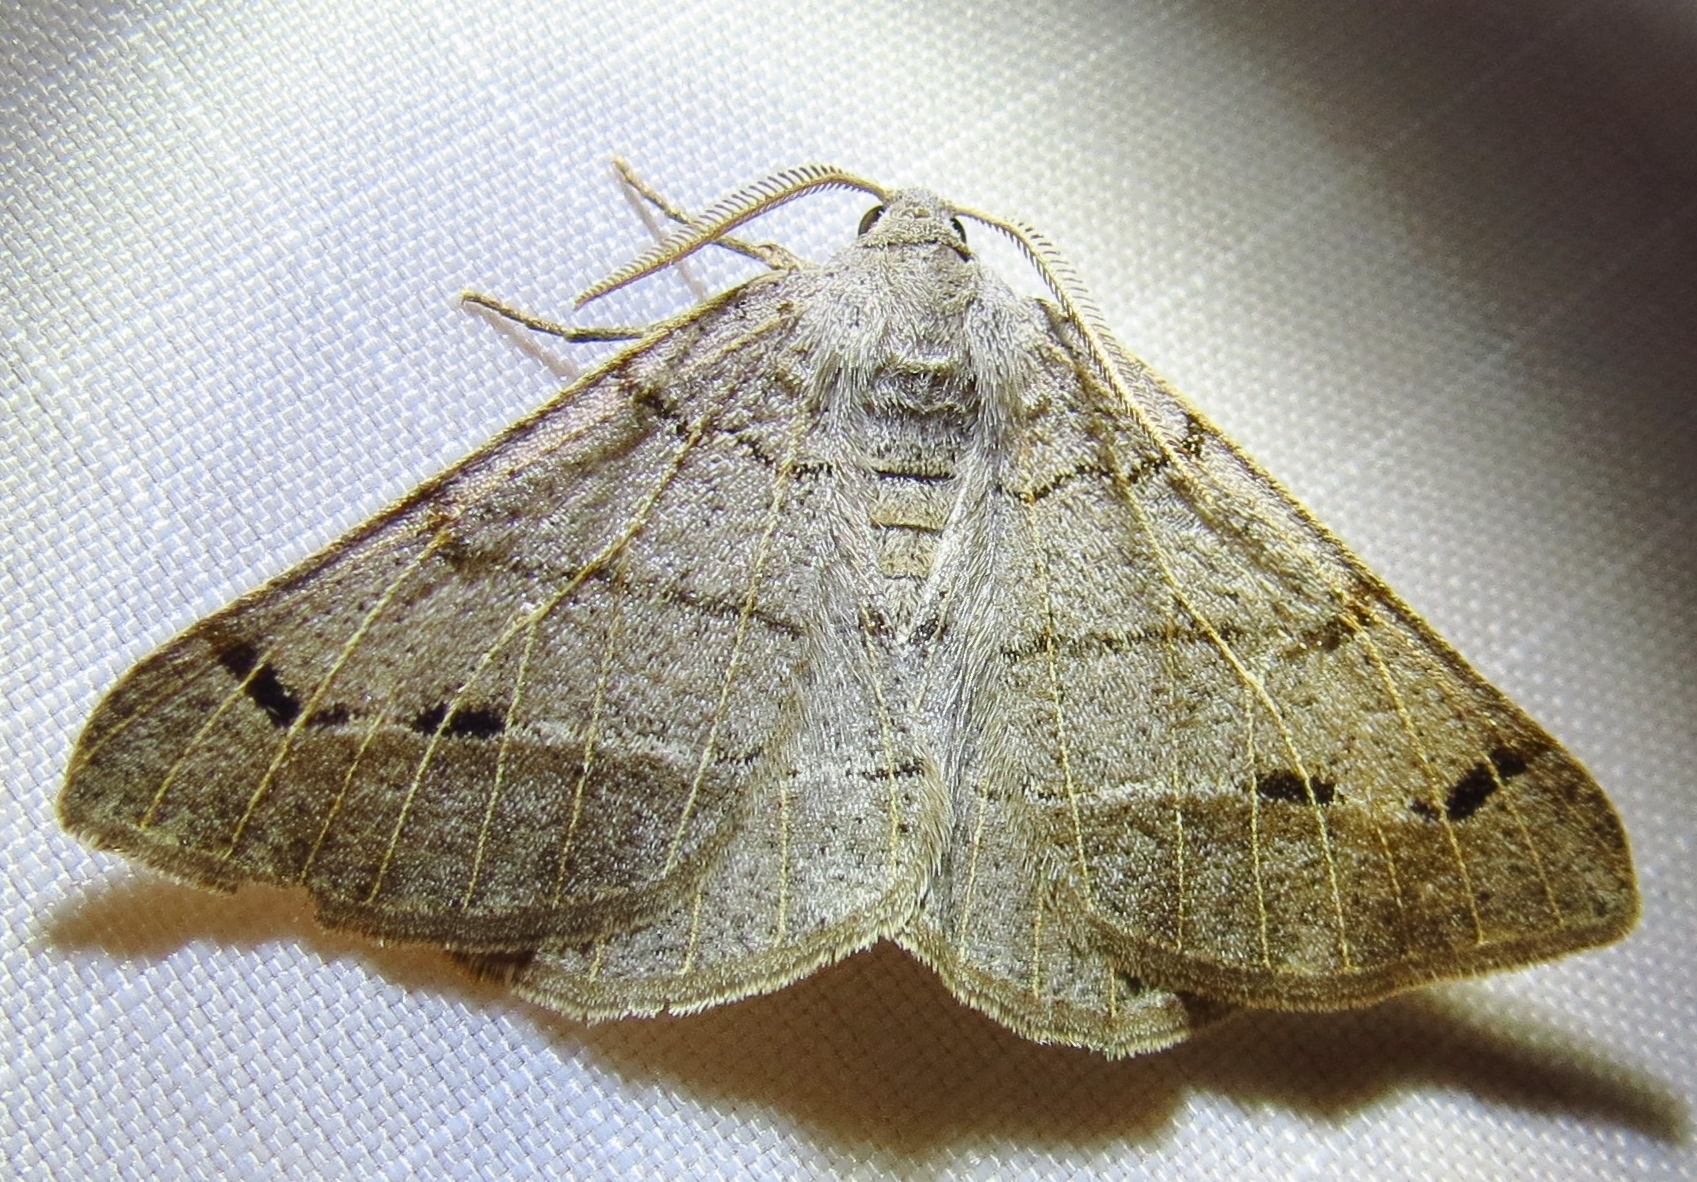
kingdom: Animalia
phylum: Arthropoda
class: Insecta
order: Lepidoptera
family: Geometridae
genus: Isturgia
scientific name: Isturgia dislocaria
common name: Pale-viened enconista
